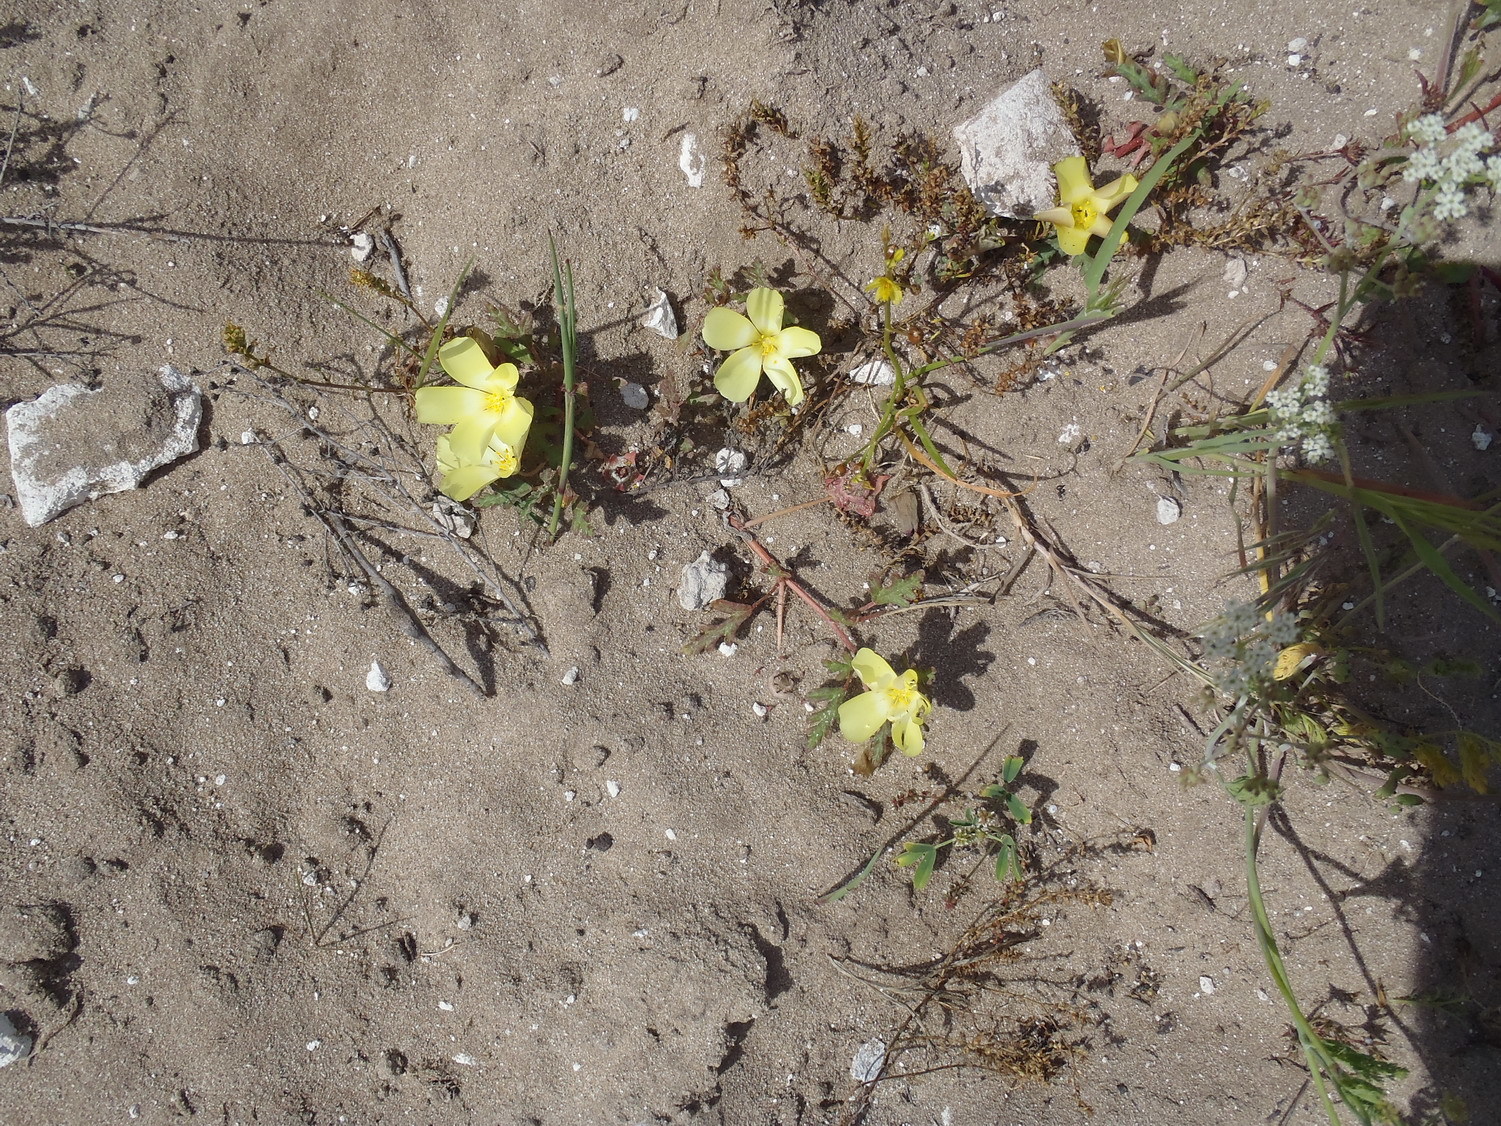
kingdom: Plantae
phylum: Tracheophyta
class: Magnoliopsida
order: Malvales
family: Neuradaceae
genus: Grielum
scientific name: Grielum humifusum
